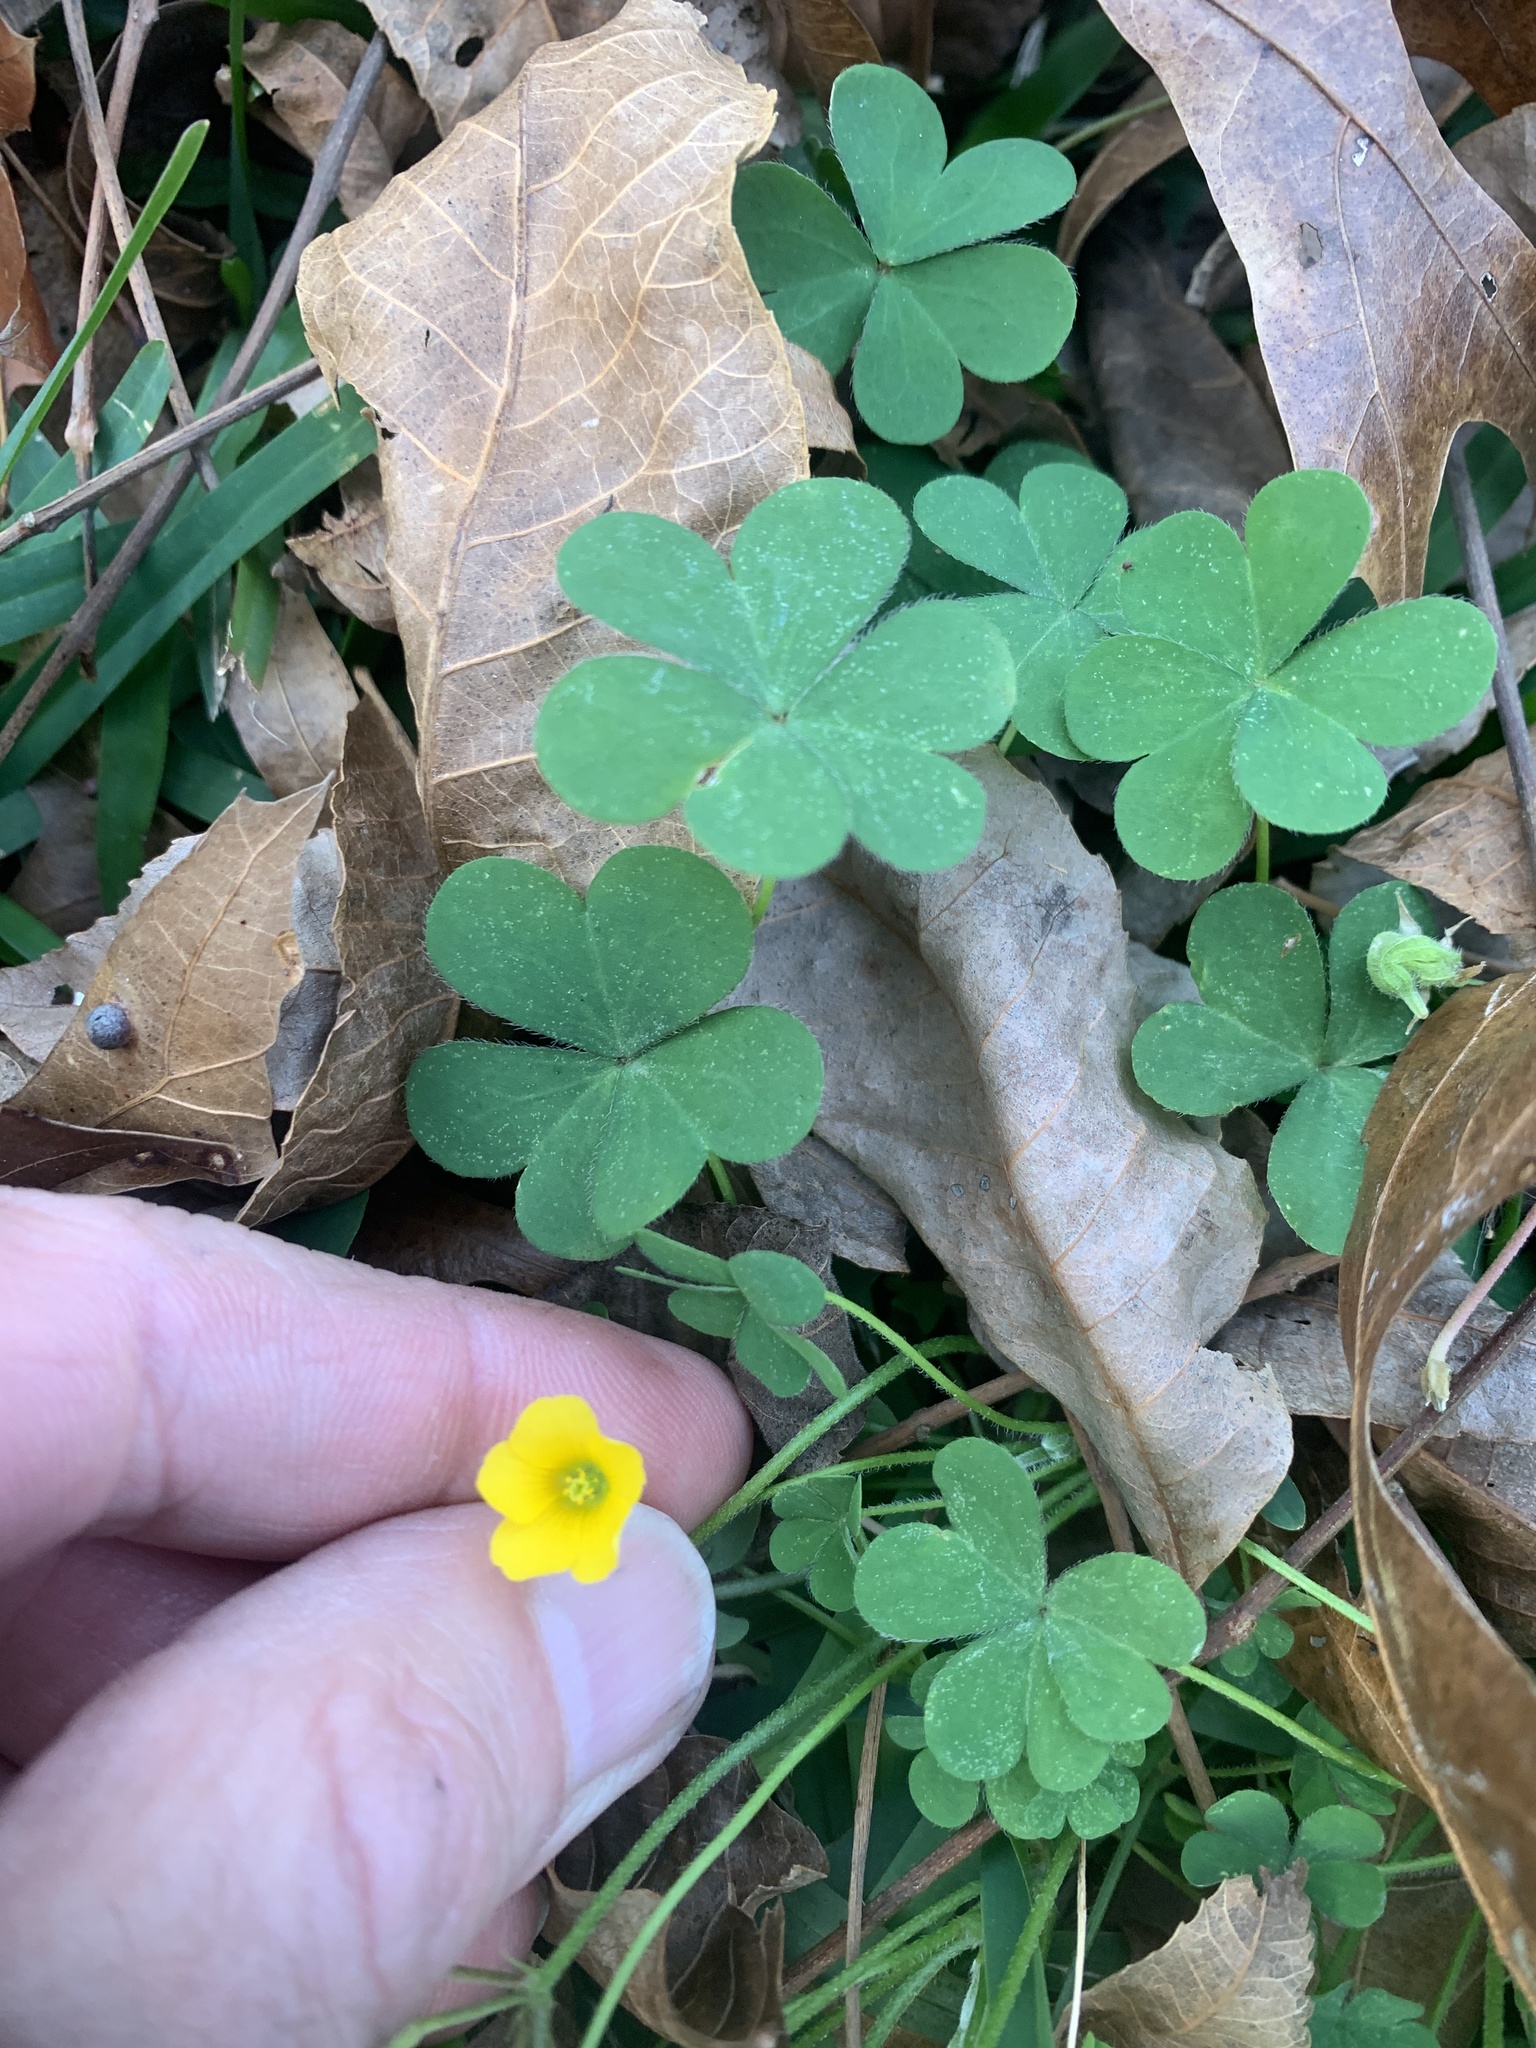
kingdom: Plantae
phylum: Tracheophyta
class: Magnoliopsida
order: Oxalidales
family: Oxalidaceae
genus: Oxalis
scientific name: Oxalis corniculata
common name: Procumbent yellow-sorrel
